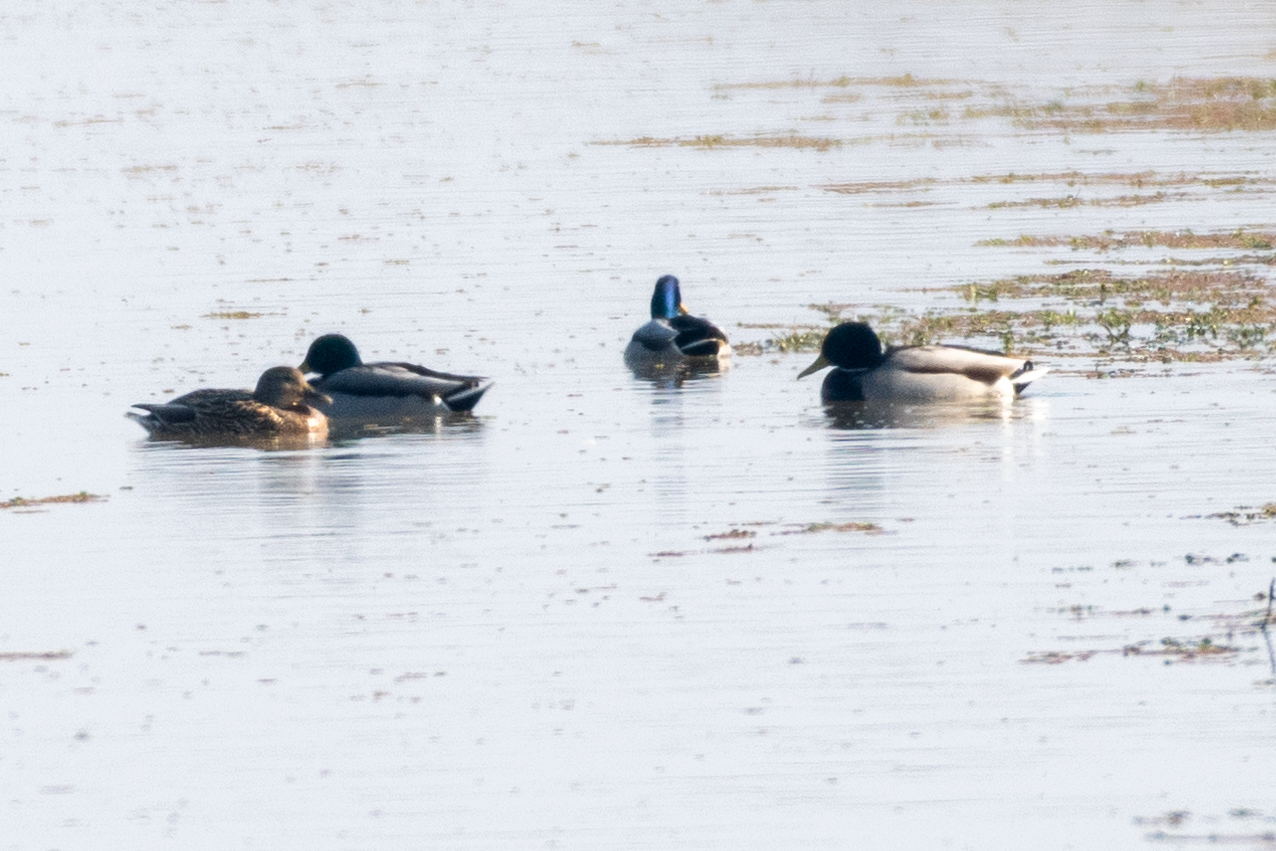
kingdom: Animalia
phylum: Chordata
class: Aves
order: Anseriformes
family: Anatidae
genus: Anas
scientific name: Anas platyrhynchos
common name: Mallard
